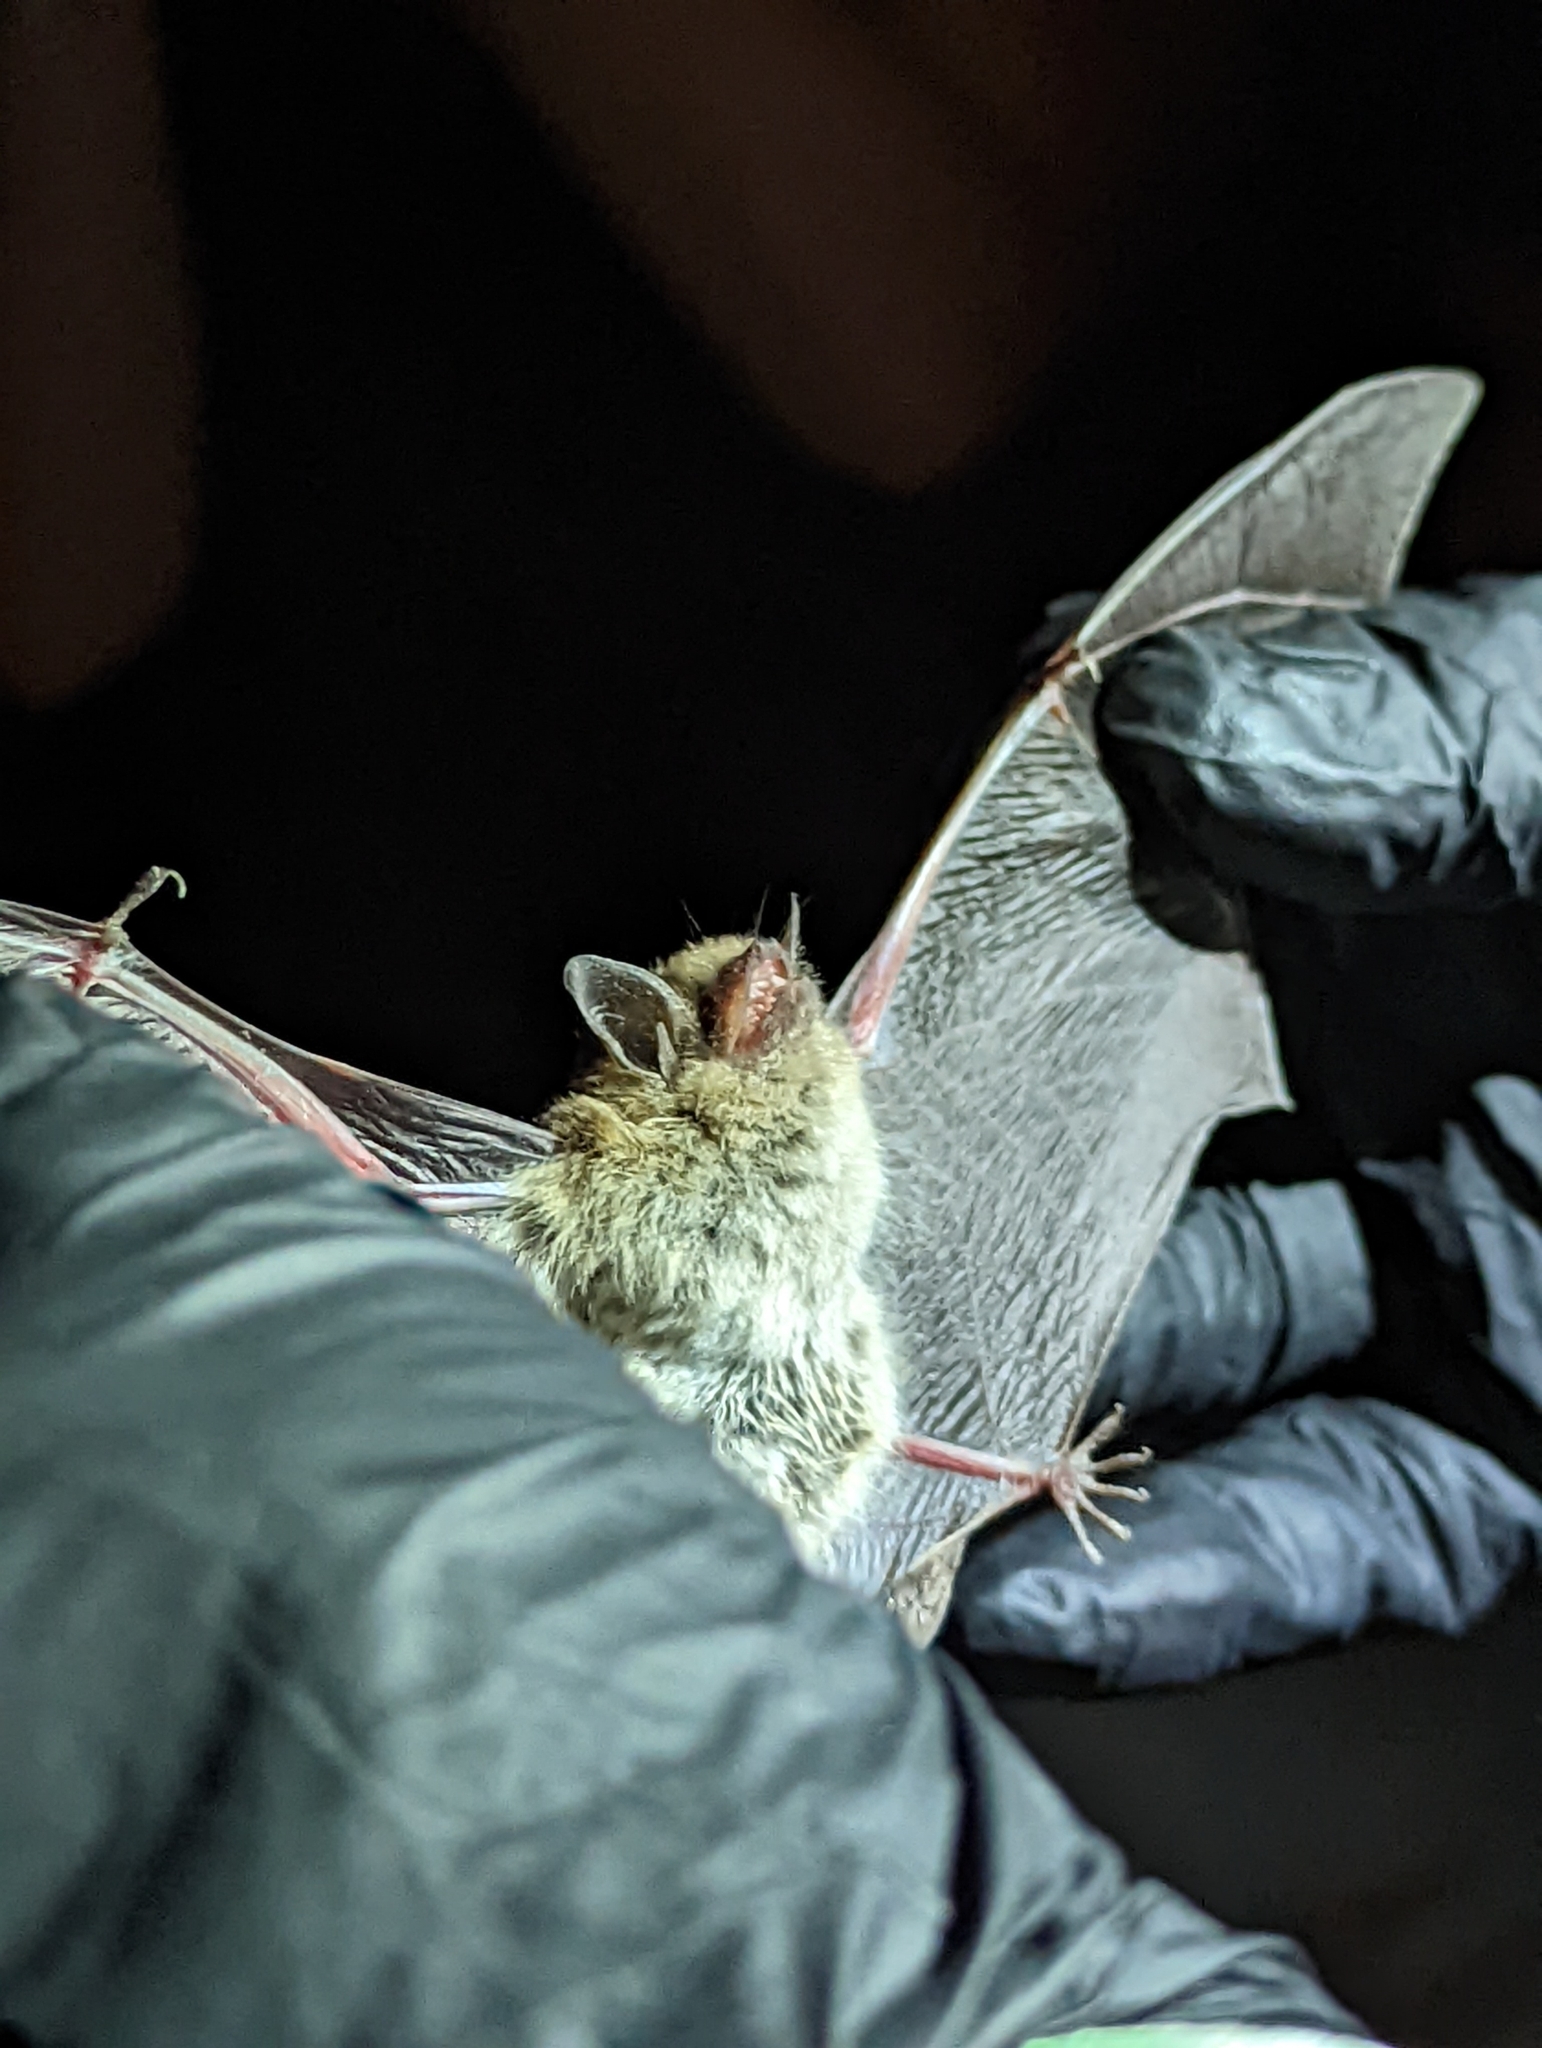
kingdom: Animalia
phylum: Chordata
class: Mammalia
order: Chiroptera
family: Vespertilionidae
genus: Myotis
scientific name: Myotis yumanensis
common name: Yuma myotis
